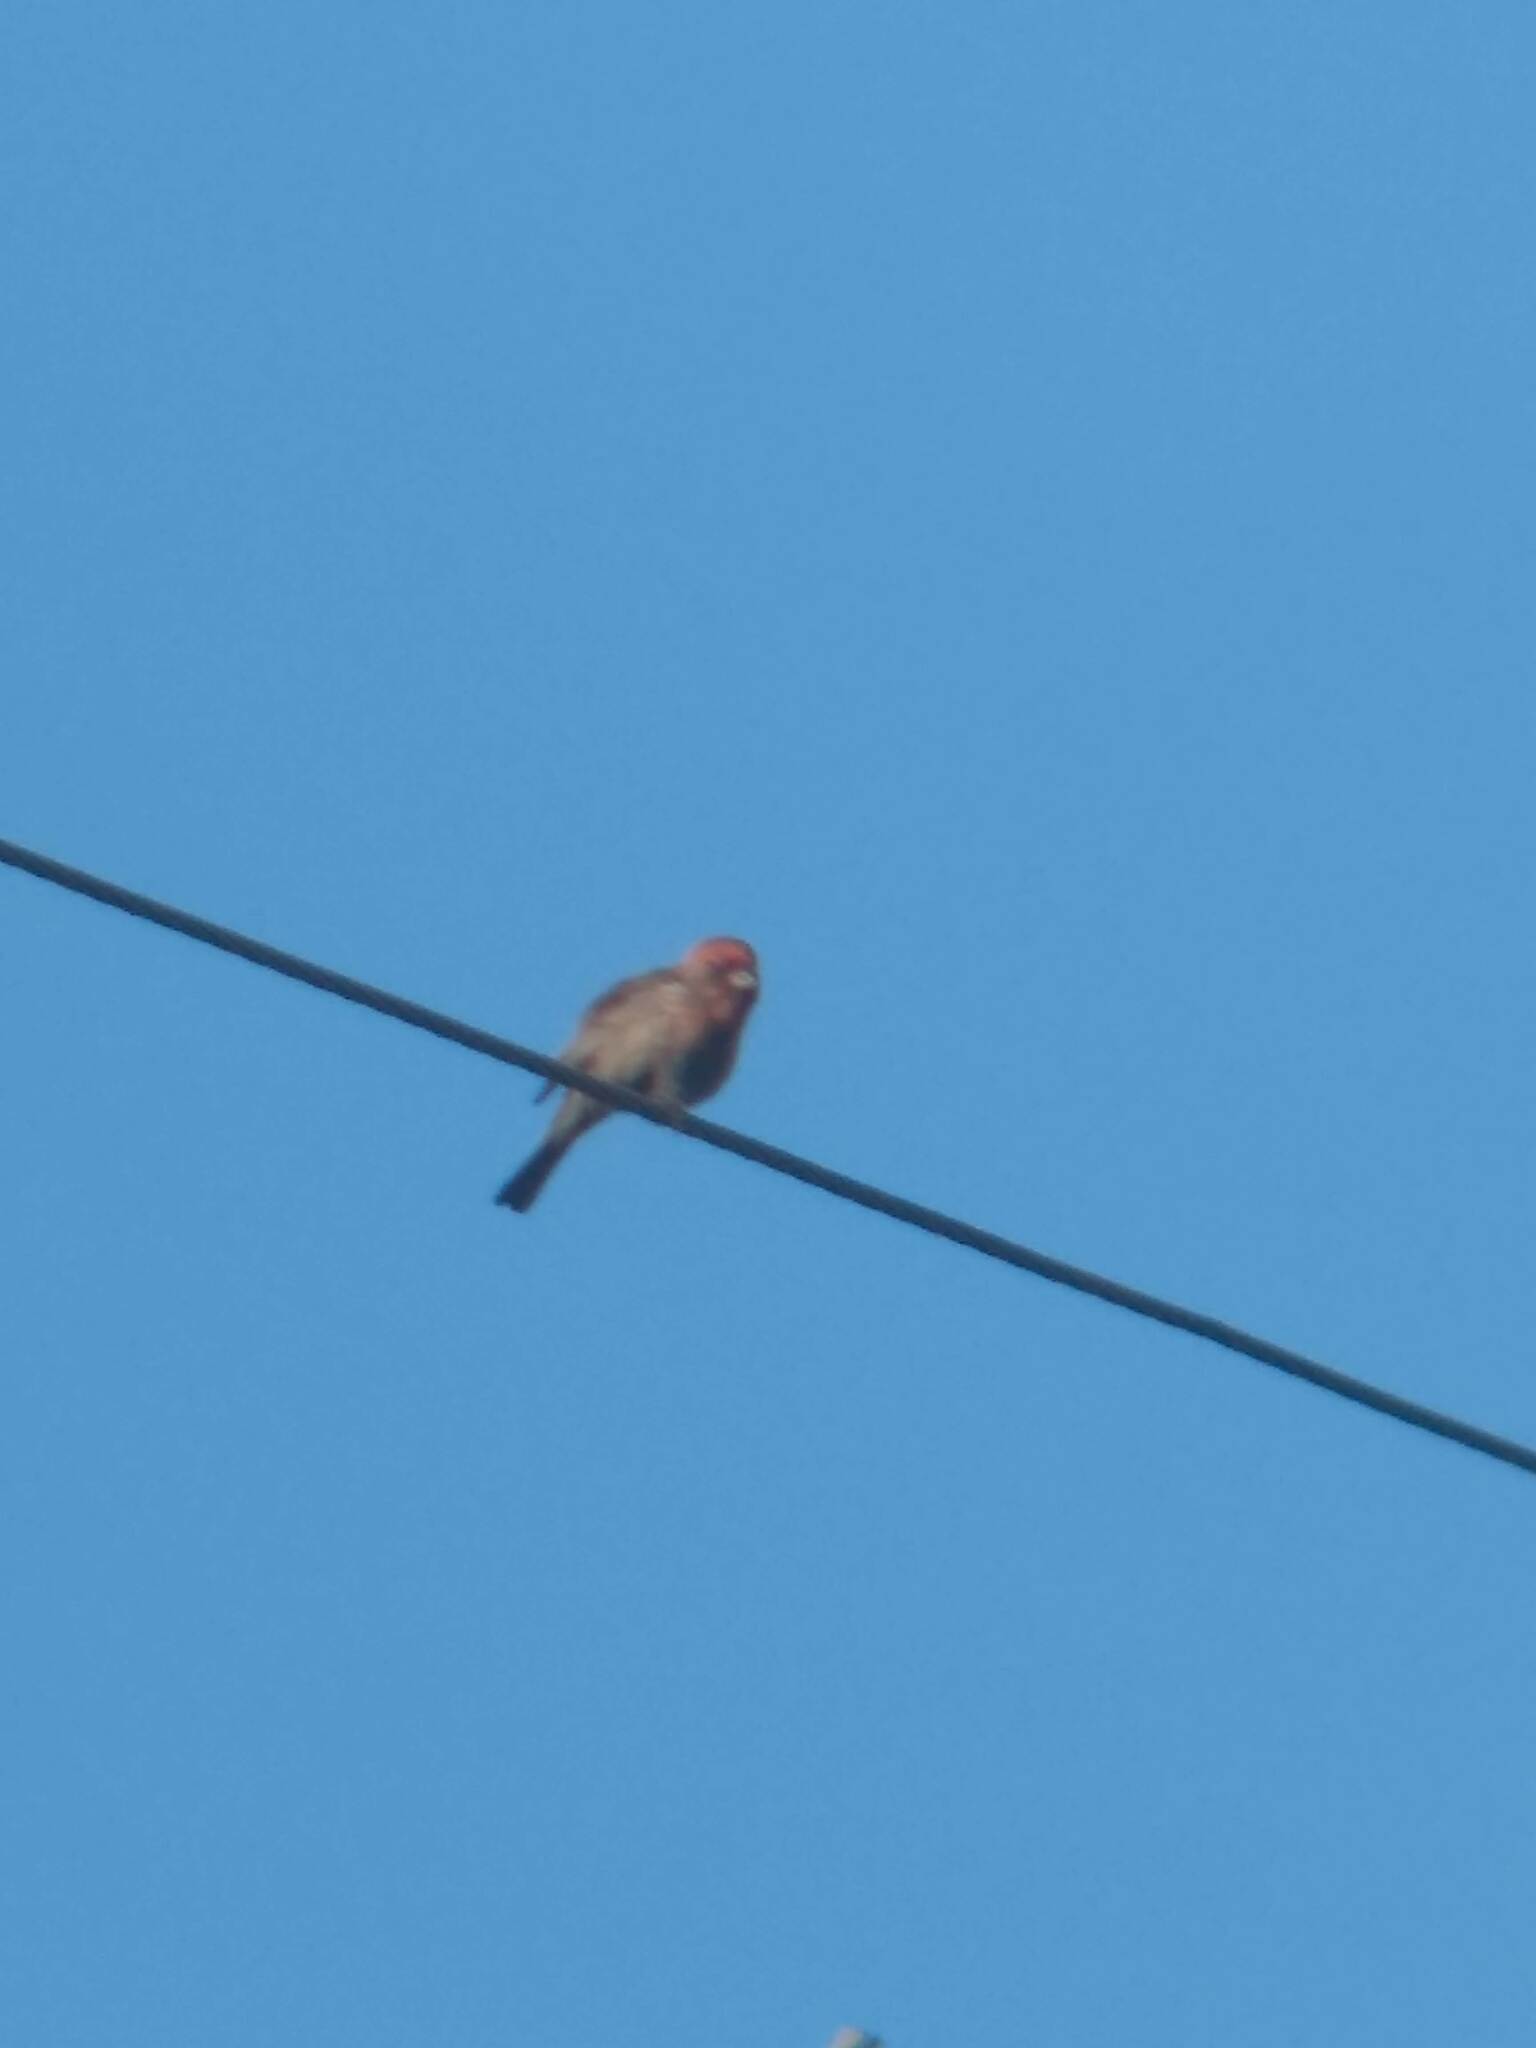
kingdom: Animalia
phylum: Chordata
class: Aves
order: Passeriformes
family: Fringillidae
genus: Haemorhous
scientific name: Haemorhous mexicanus
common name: House finch
